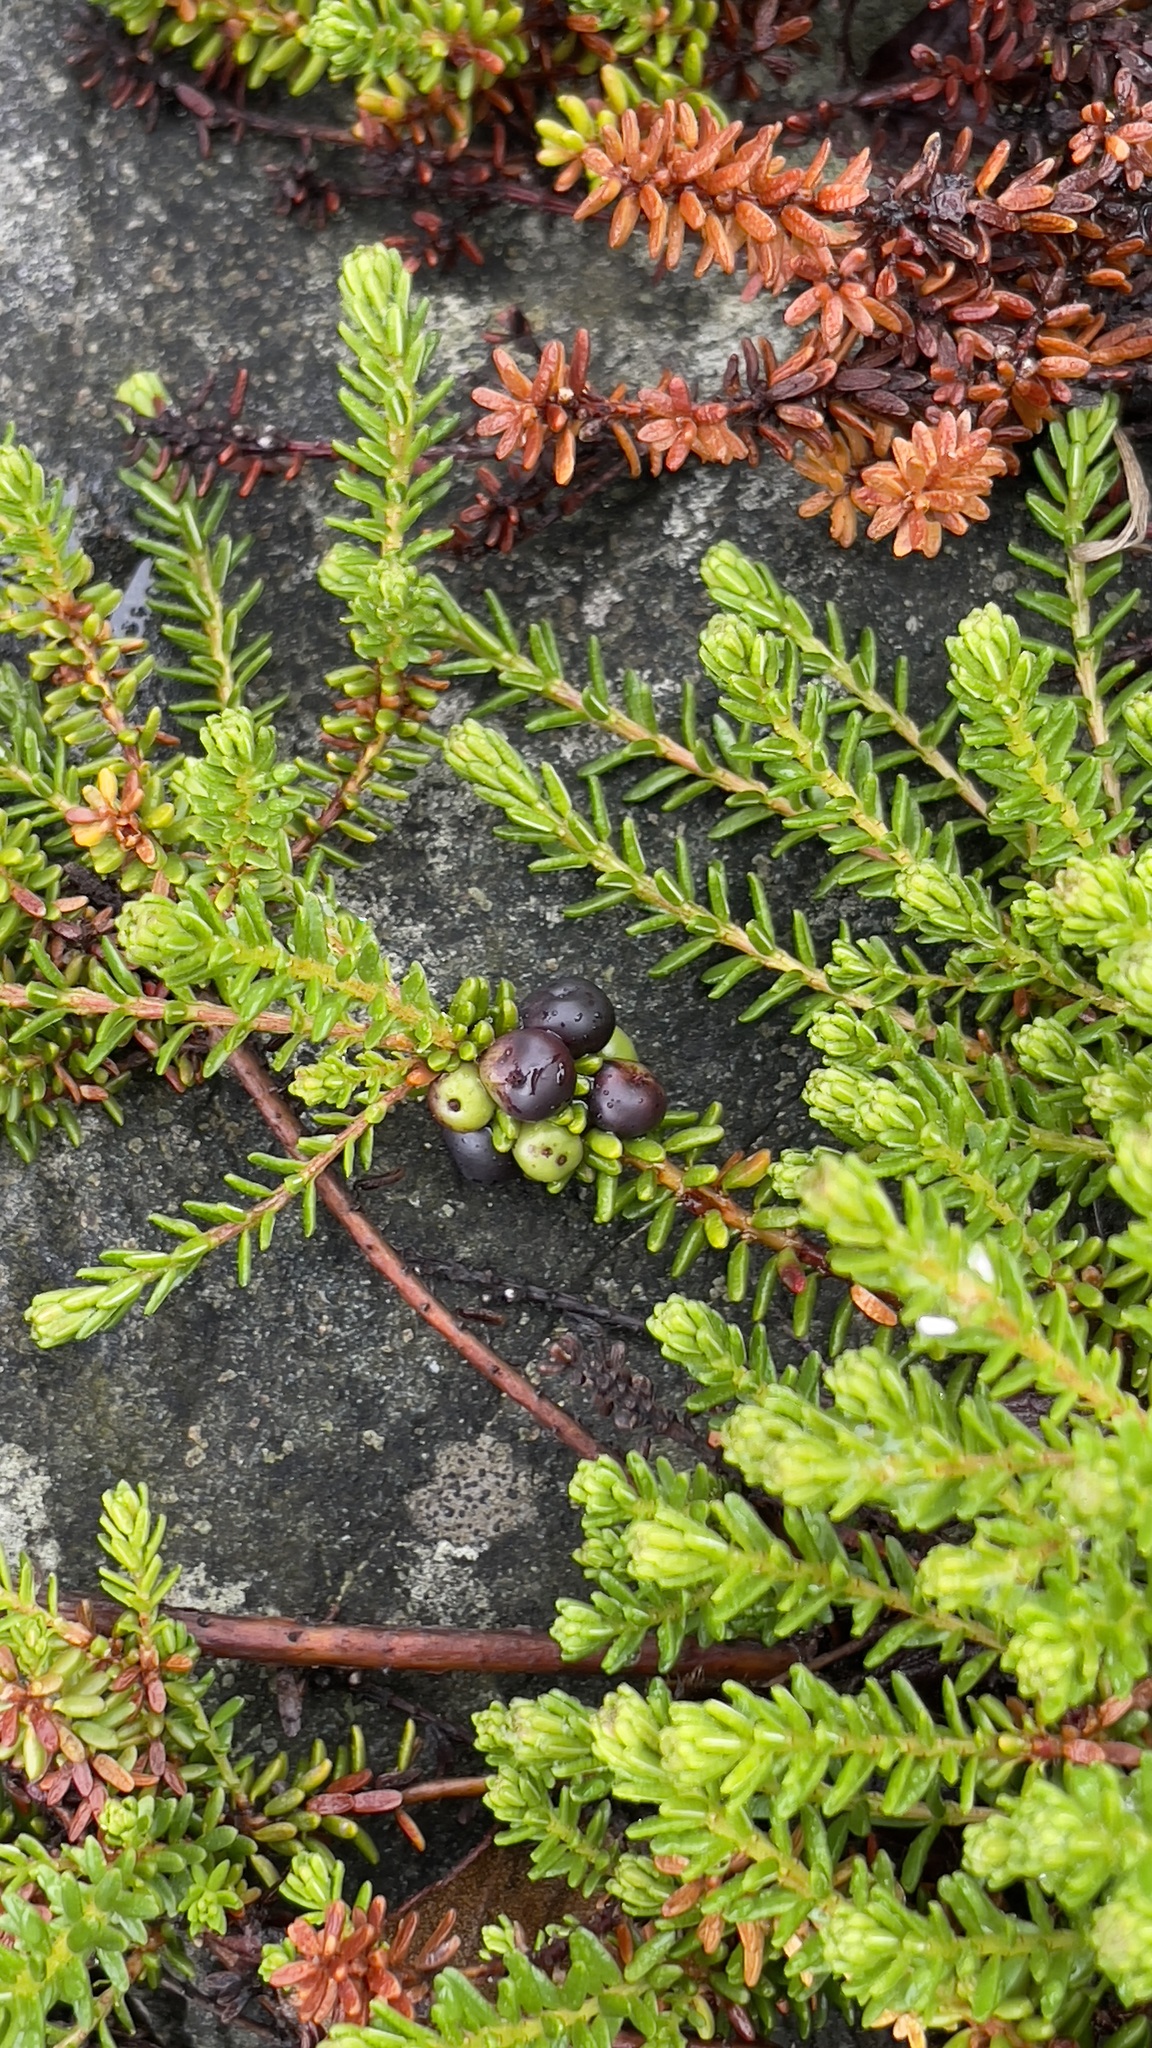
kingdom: Plantae
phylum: Tracheophyta
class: Magnoliopsida
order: Ericales
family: Ericaceae
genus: Empetrum
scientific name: Empetrum nigrum
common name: Black crowberry
